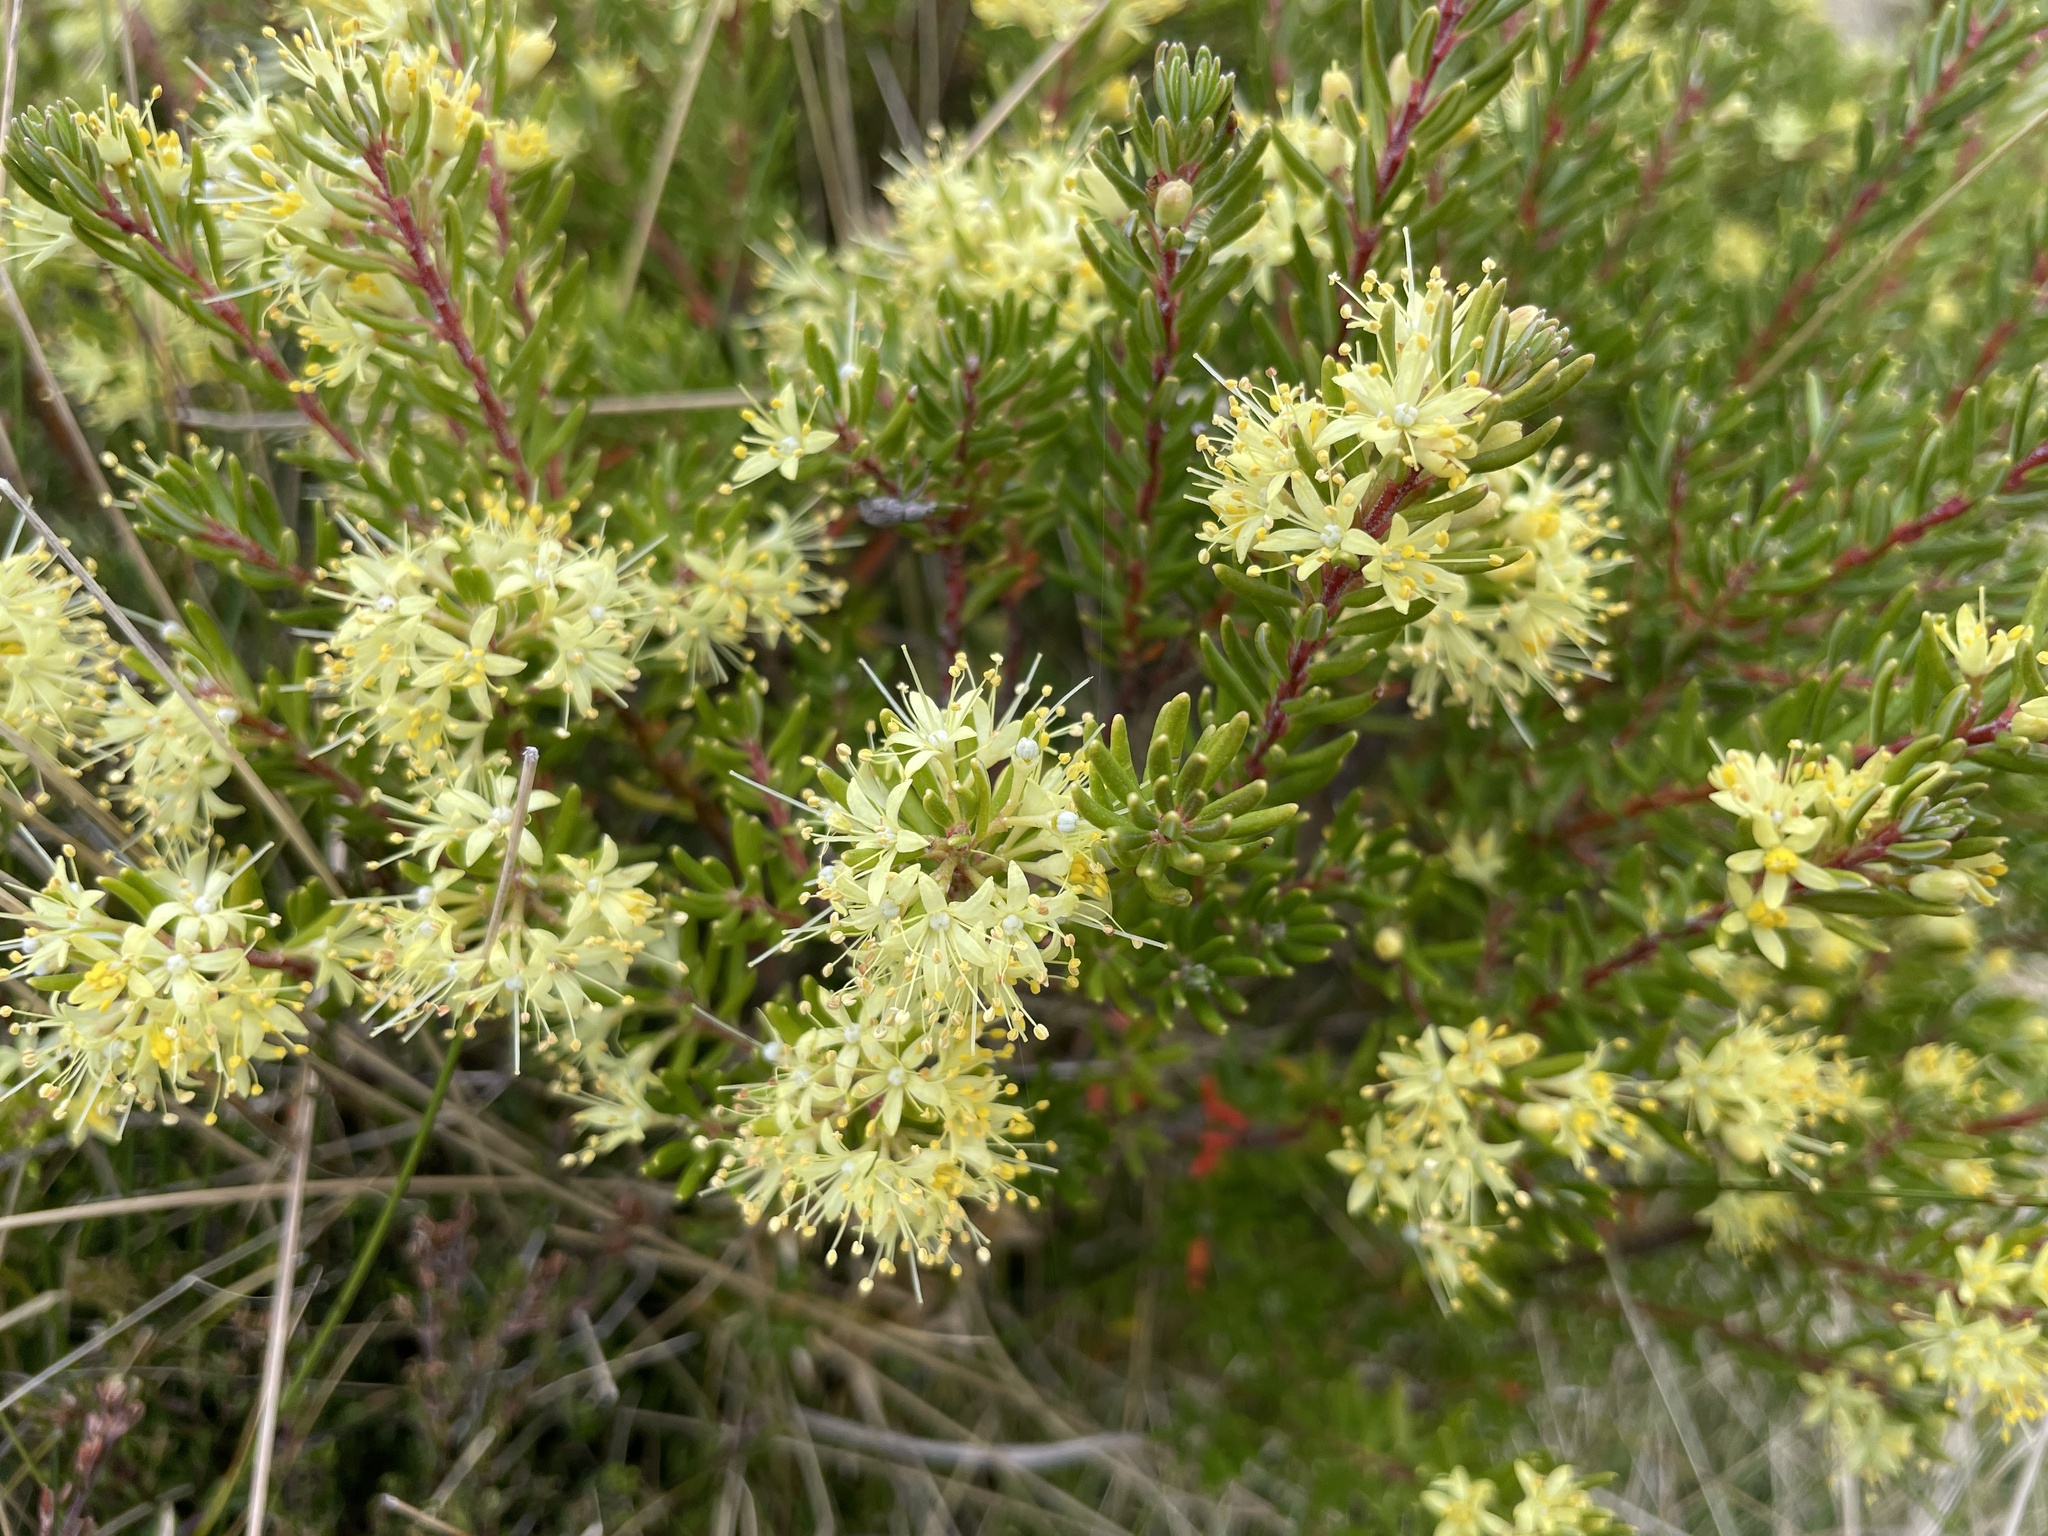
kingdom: Plantae
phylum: Tracheophyta
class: Magnoliopsida
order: Sapindales
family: Rutaceae
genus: Leionema
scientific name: Leionema phylicifolium
